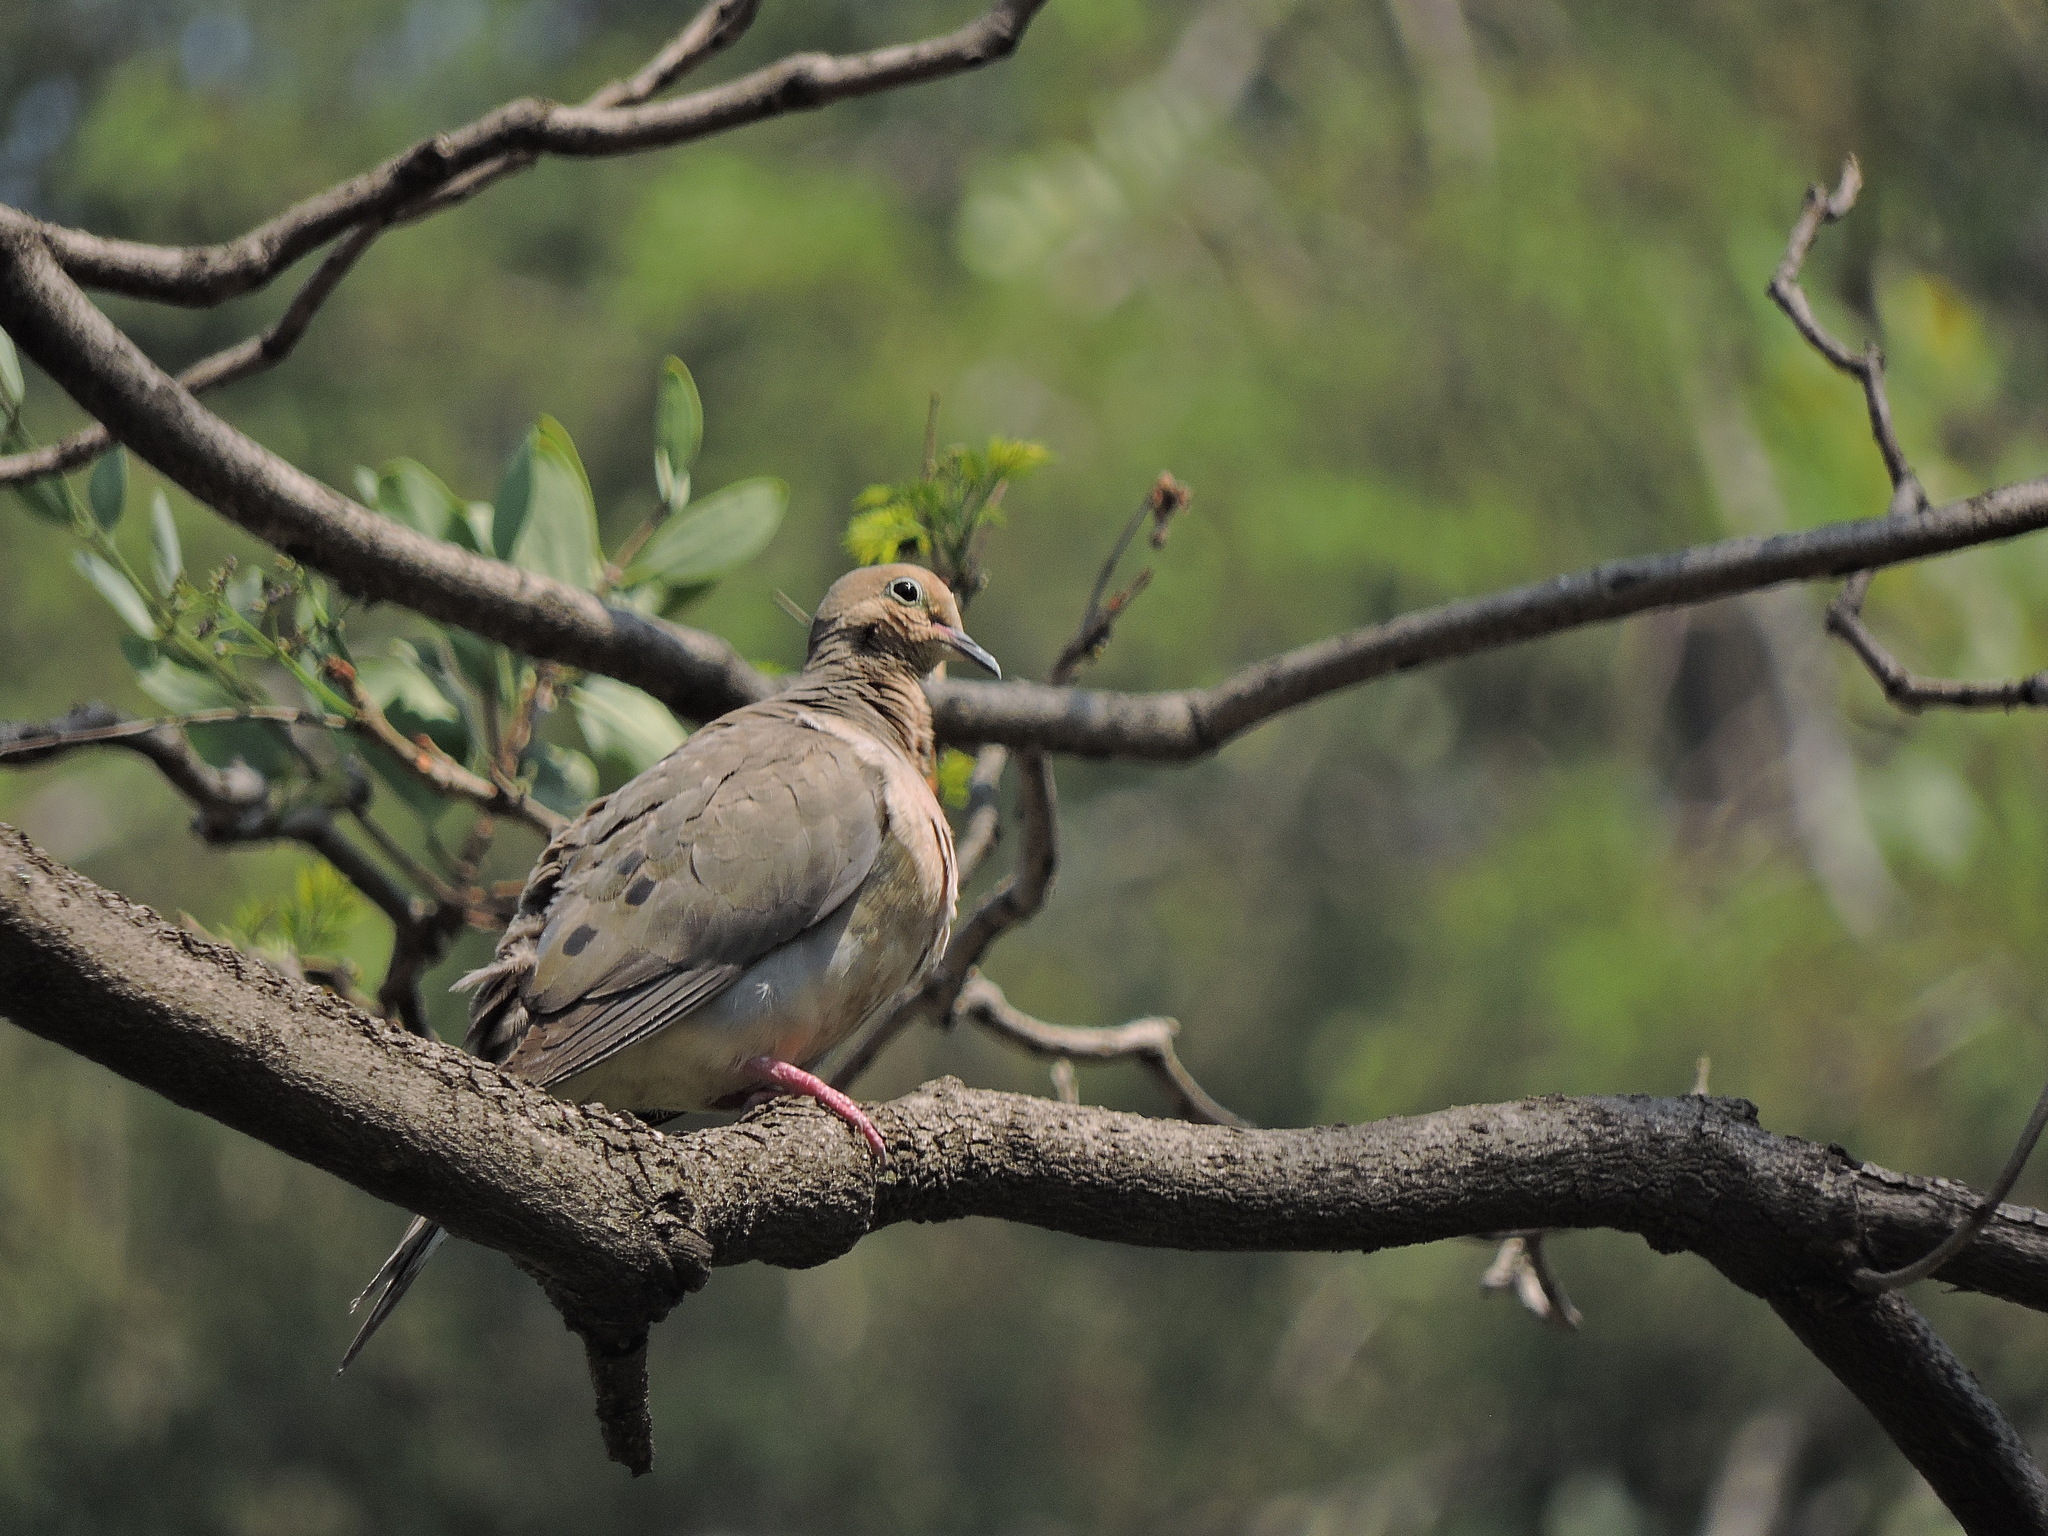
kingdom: Animalia
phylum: Chordata
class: Aves
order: Columbiformes
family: Columbidae
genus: Zenaida
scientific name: Zenaida macroura
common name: Mourning dove
